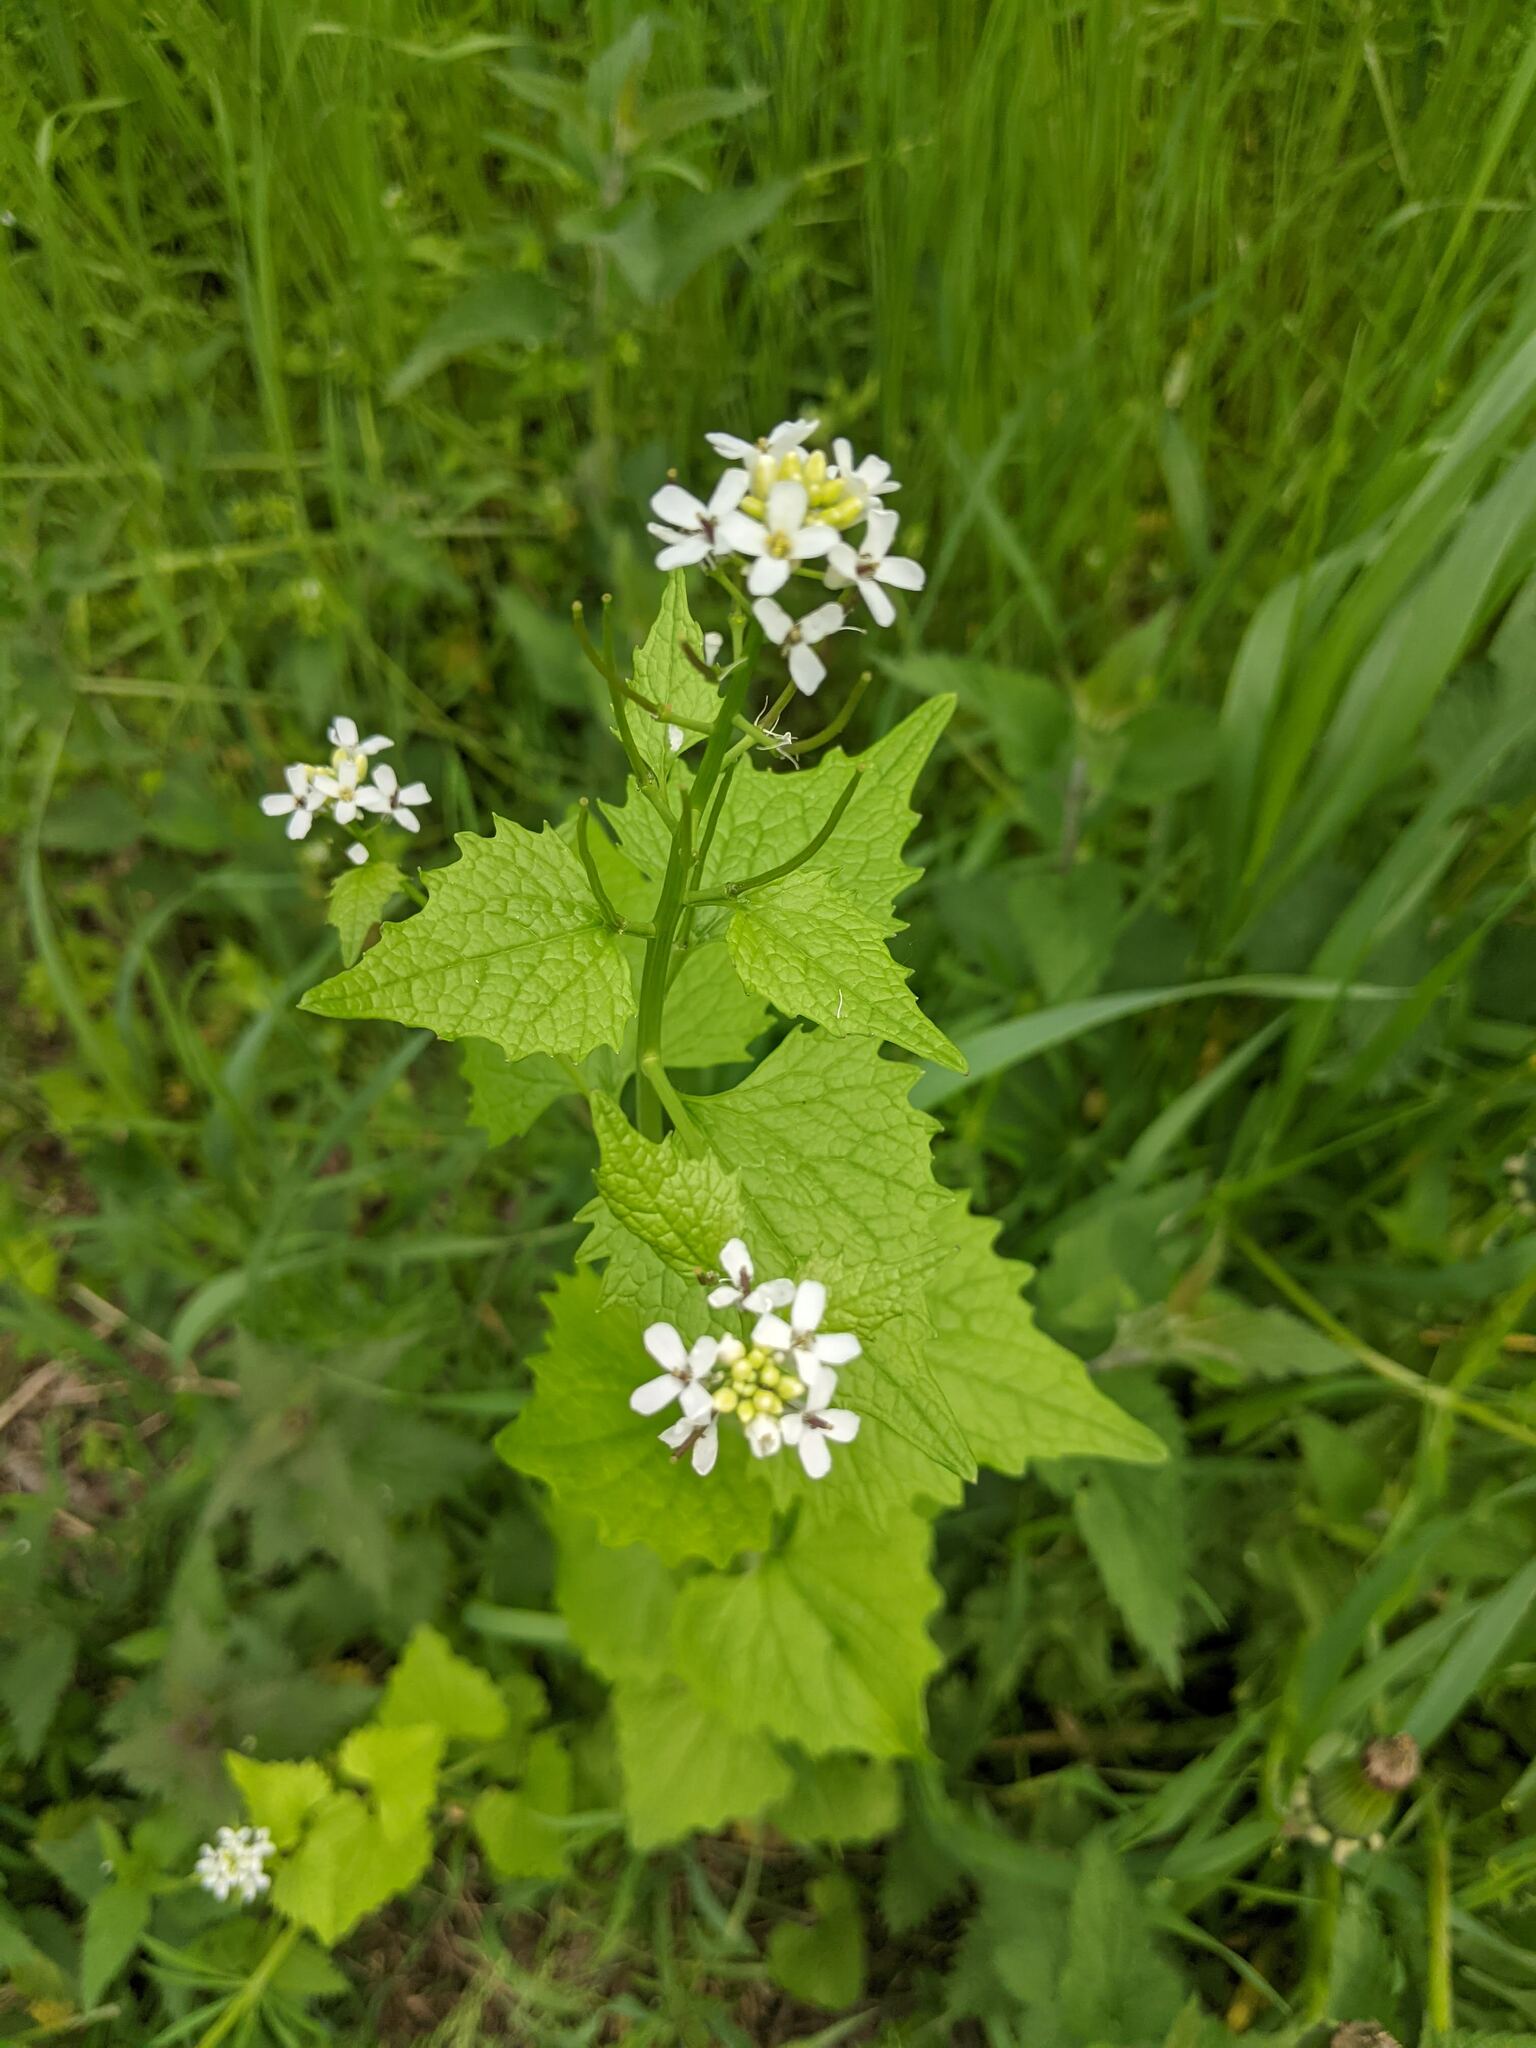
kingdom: Plantae
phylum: Tracheophyta
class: Magnoliopsida
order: Brassicales
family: Brassicaceae
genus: Alliaria
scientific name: Alliaria petiolata
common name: Garlic mustard
